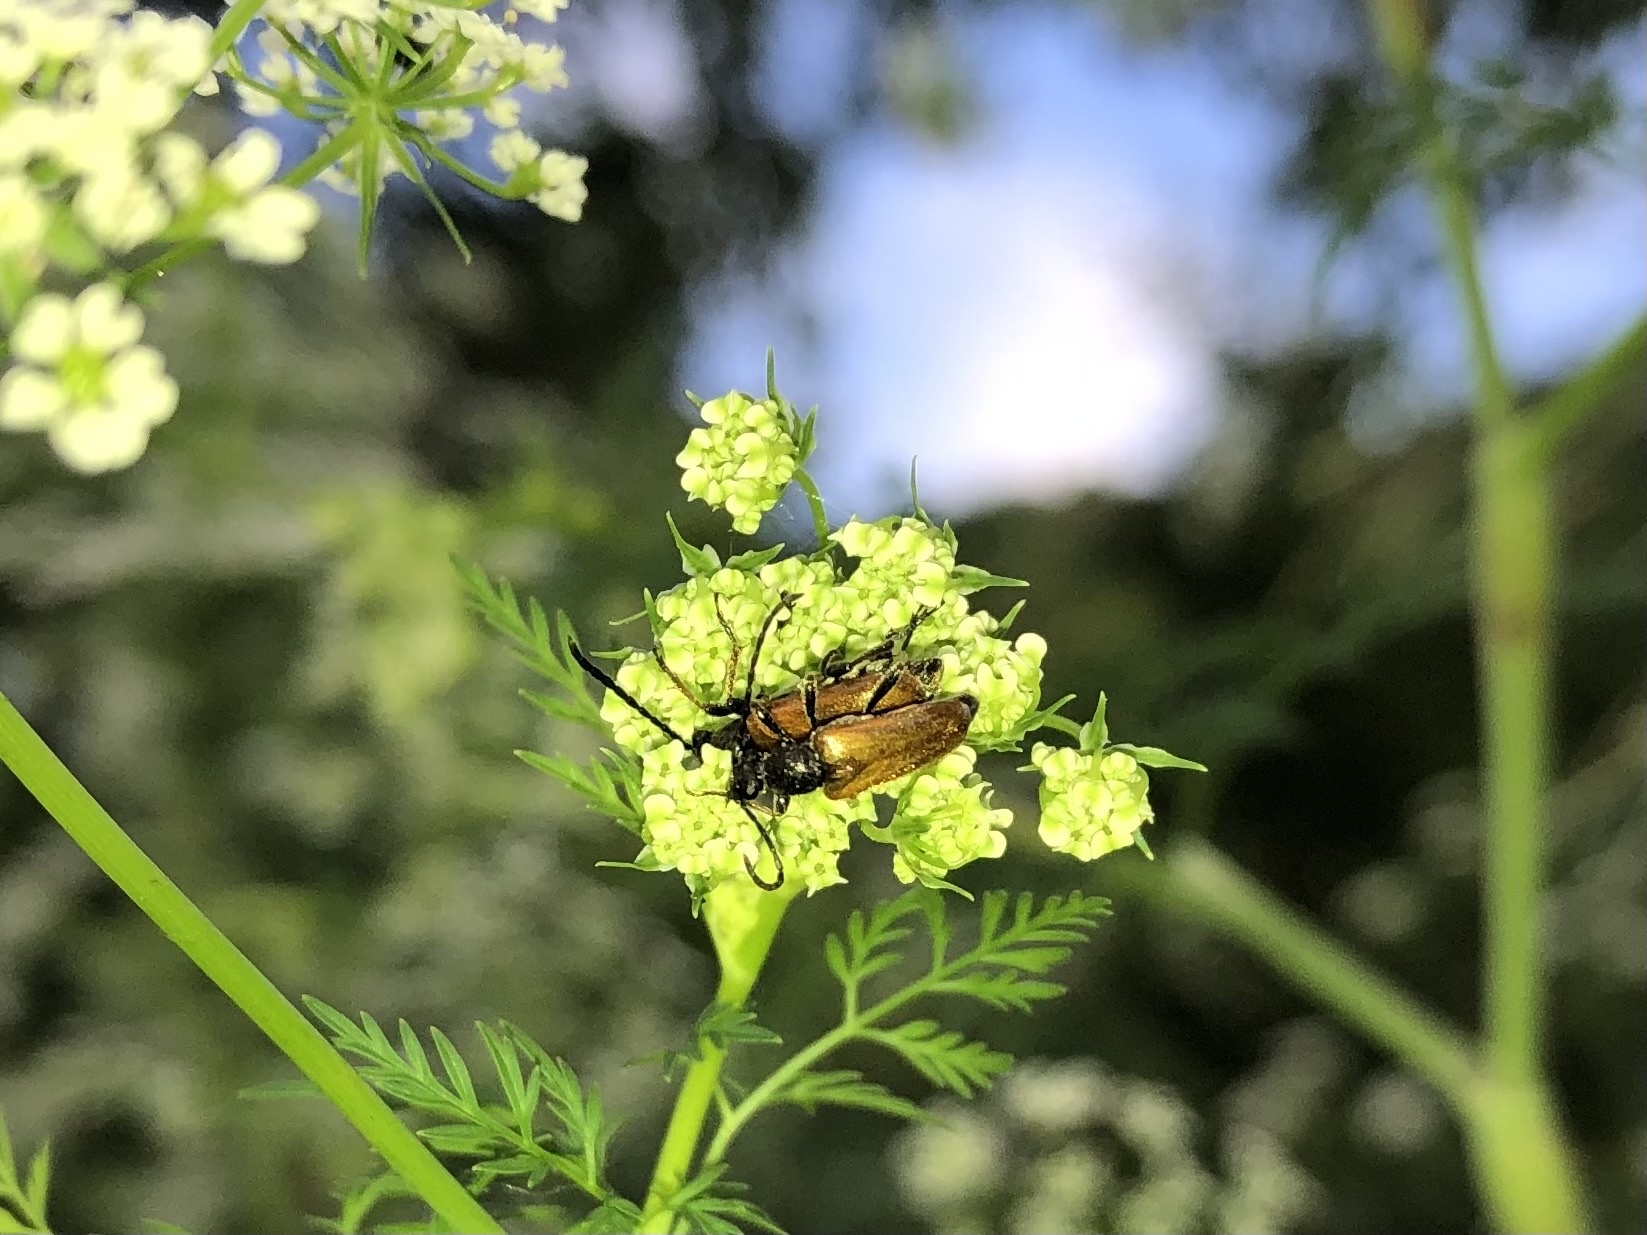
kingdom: Animalia
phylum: Arthropoda
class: Insecta
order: Coleoptera
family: Cerambycidae
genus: Pseudovadonia
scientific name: Pseudovadonia livida
